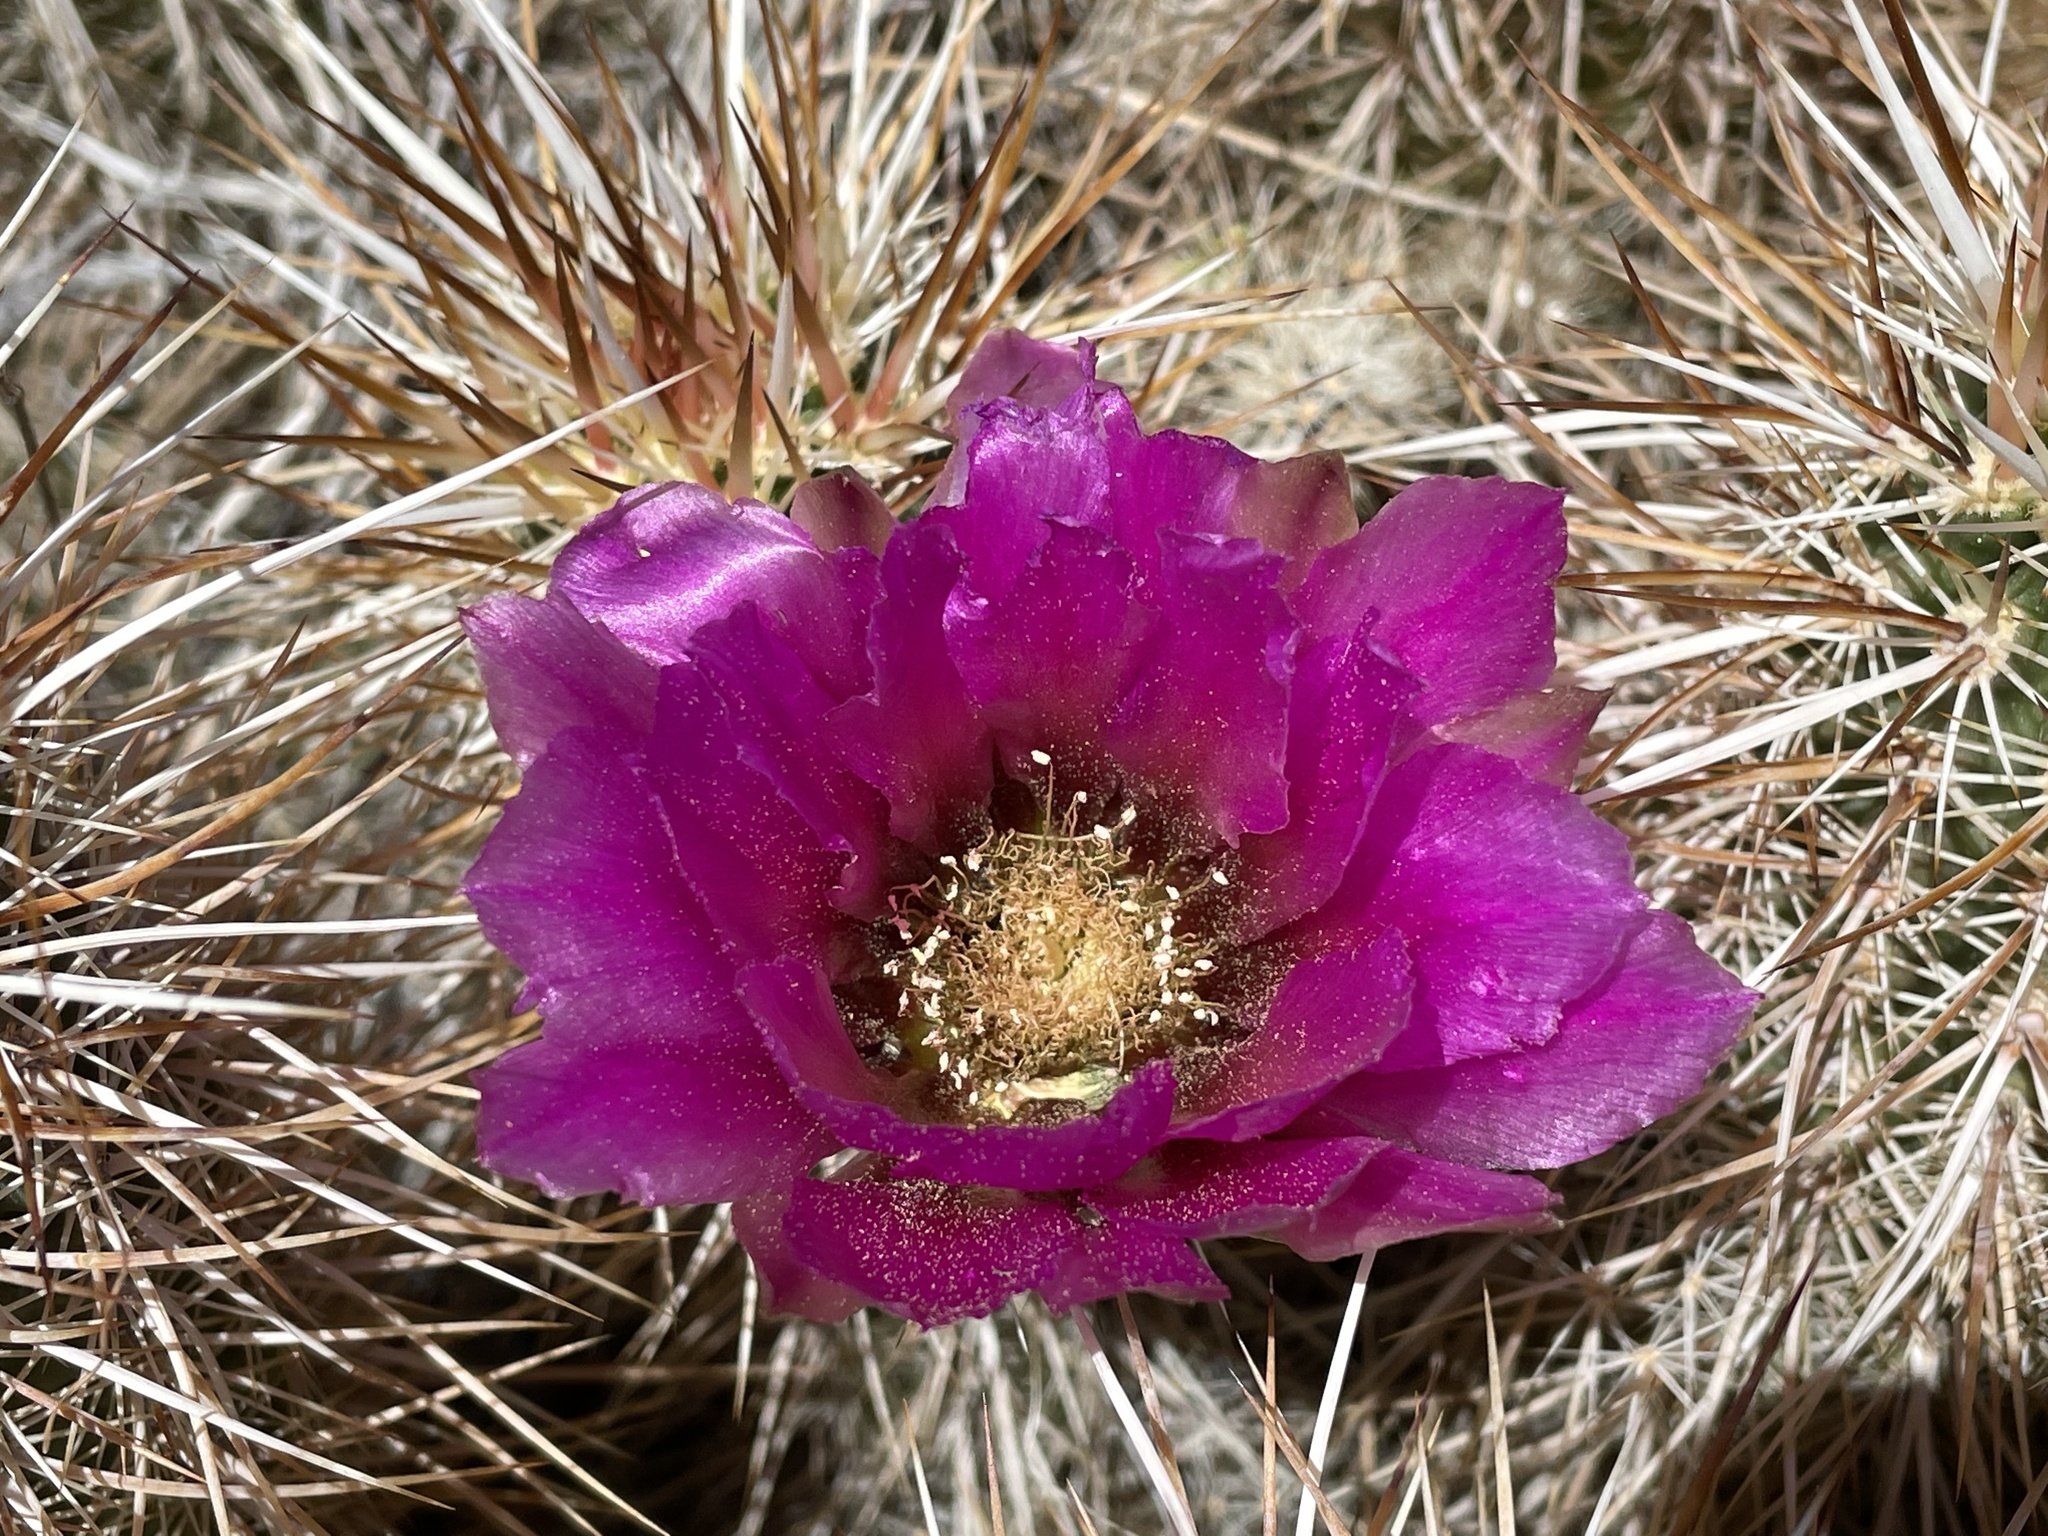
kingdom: Plantae
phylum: Tracheophyta
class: Magnoliopsida
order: Caryophyllales
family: Cactaceae
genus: Echinocereus
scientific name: Echinocereus engelmannii
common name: Engelmann's hedgehog cactus
